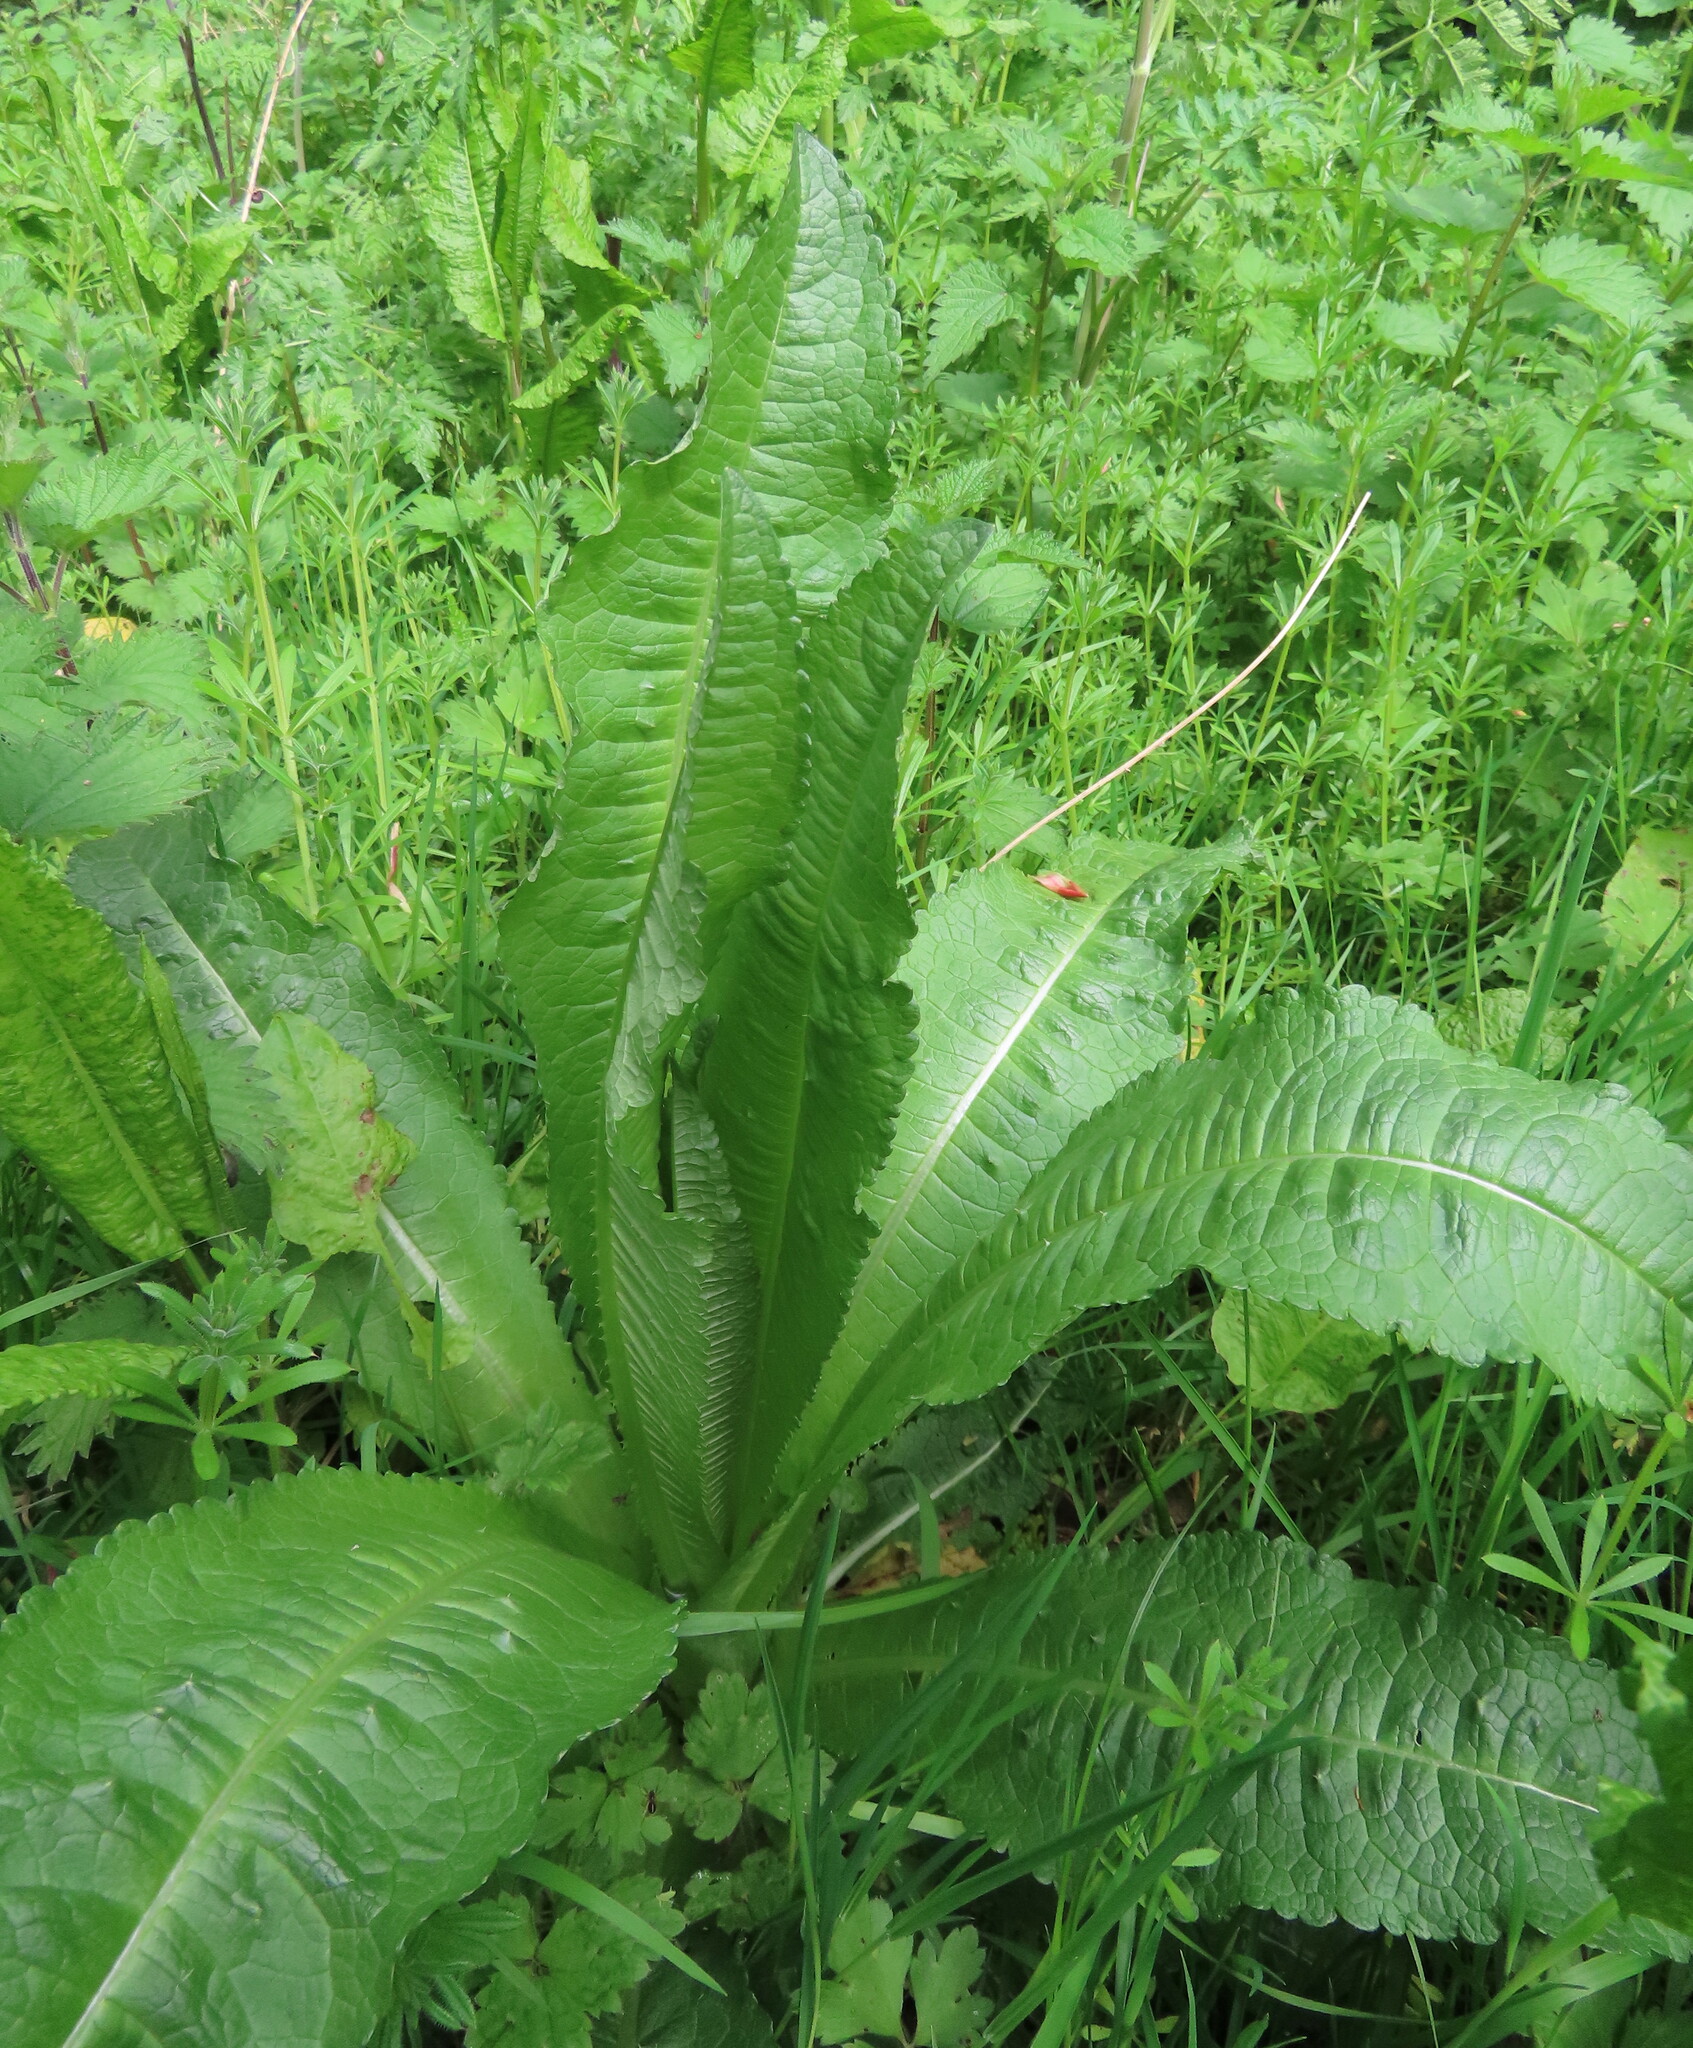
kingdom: Plantae
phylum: Tracheophyta
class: Magnoliopsida
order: Dipsacales
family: Caprifoliaceae
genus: Dipsacus
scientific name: Dipsacus fullonum
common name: Teasel
